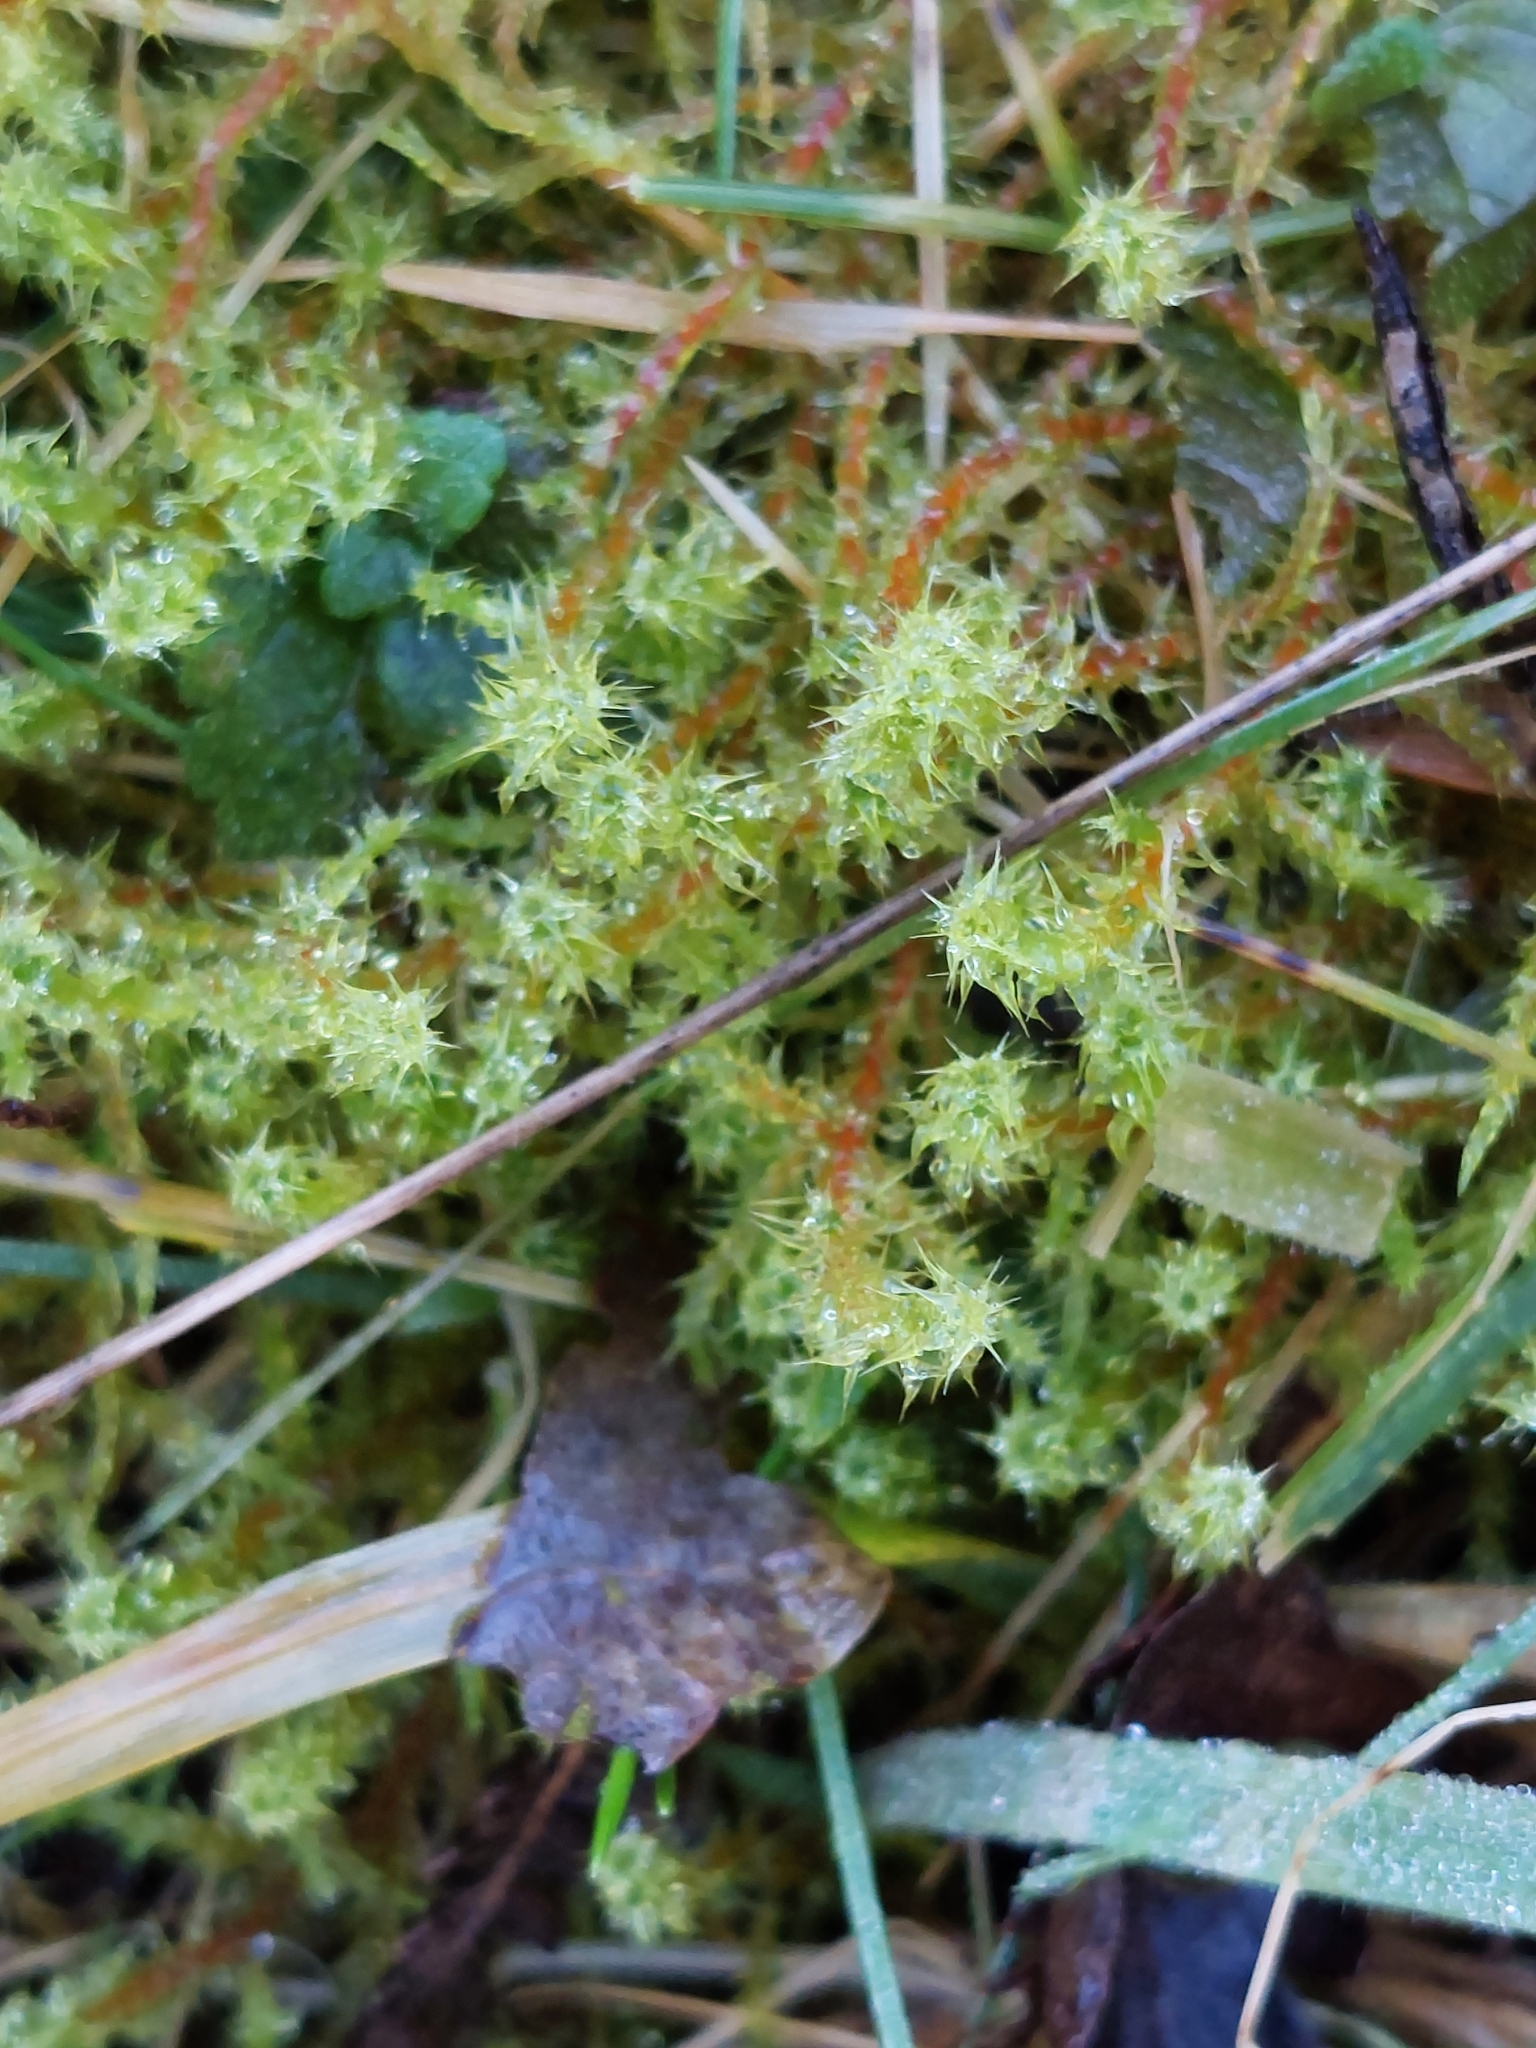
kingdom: Plantae
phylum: Bryophyta
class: Bryopsida
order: Hypnales
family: Hylocomiaceae
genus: Rhytidiadelphus
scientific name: Rhytidiadelphus squarrosus
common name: Springy turf-moss
